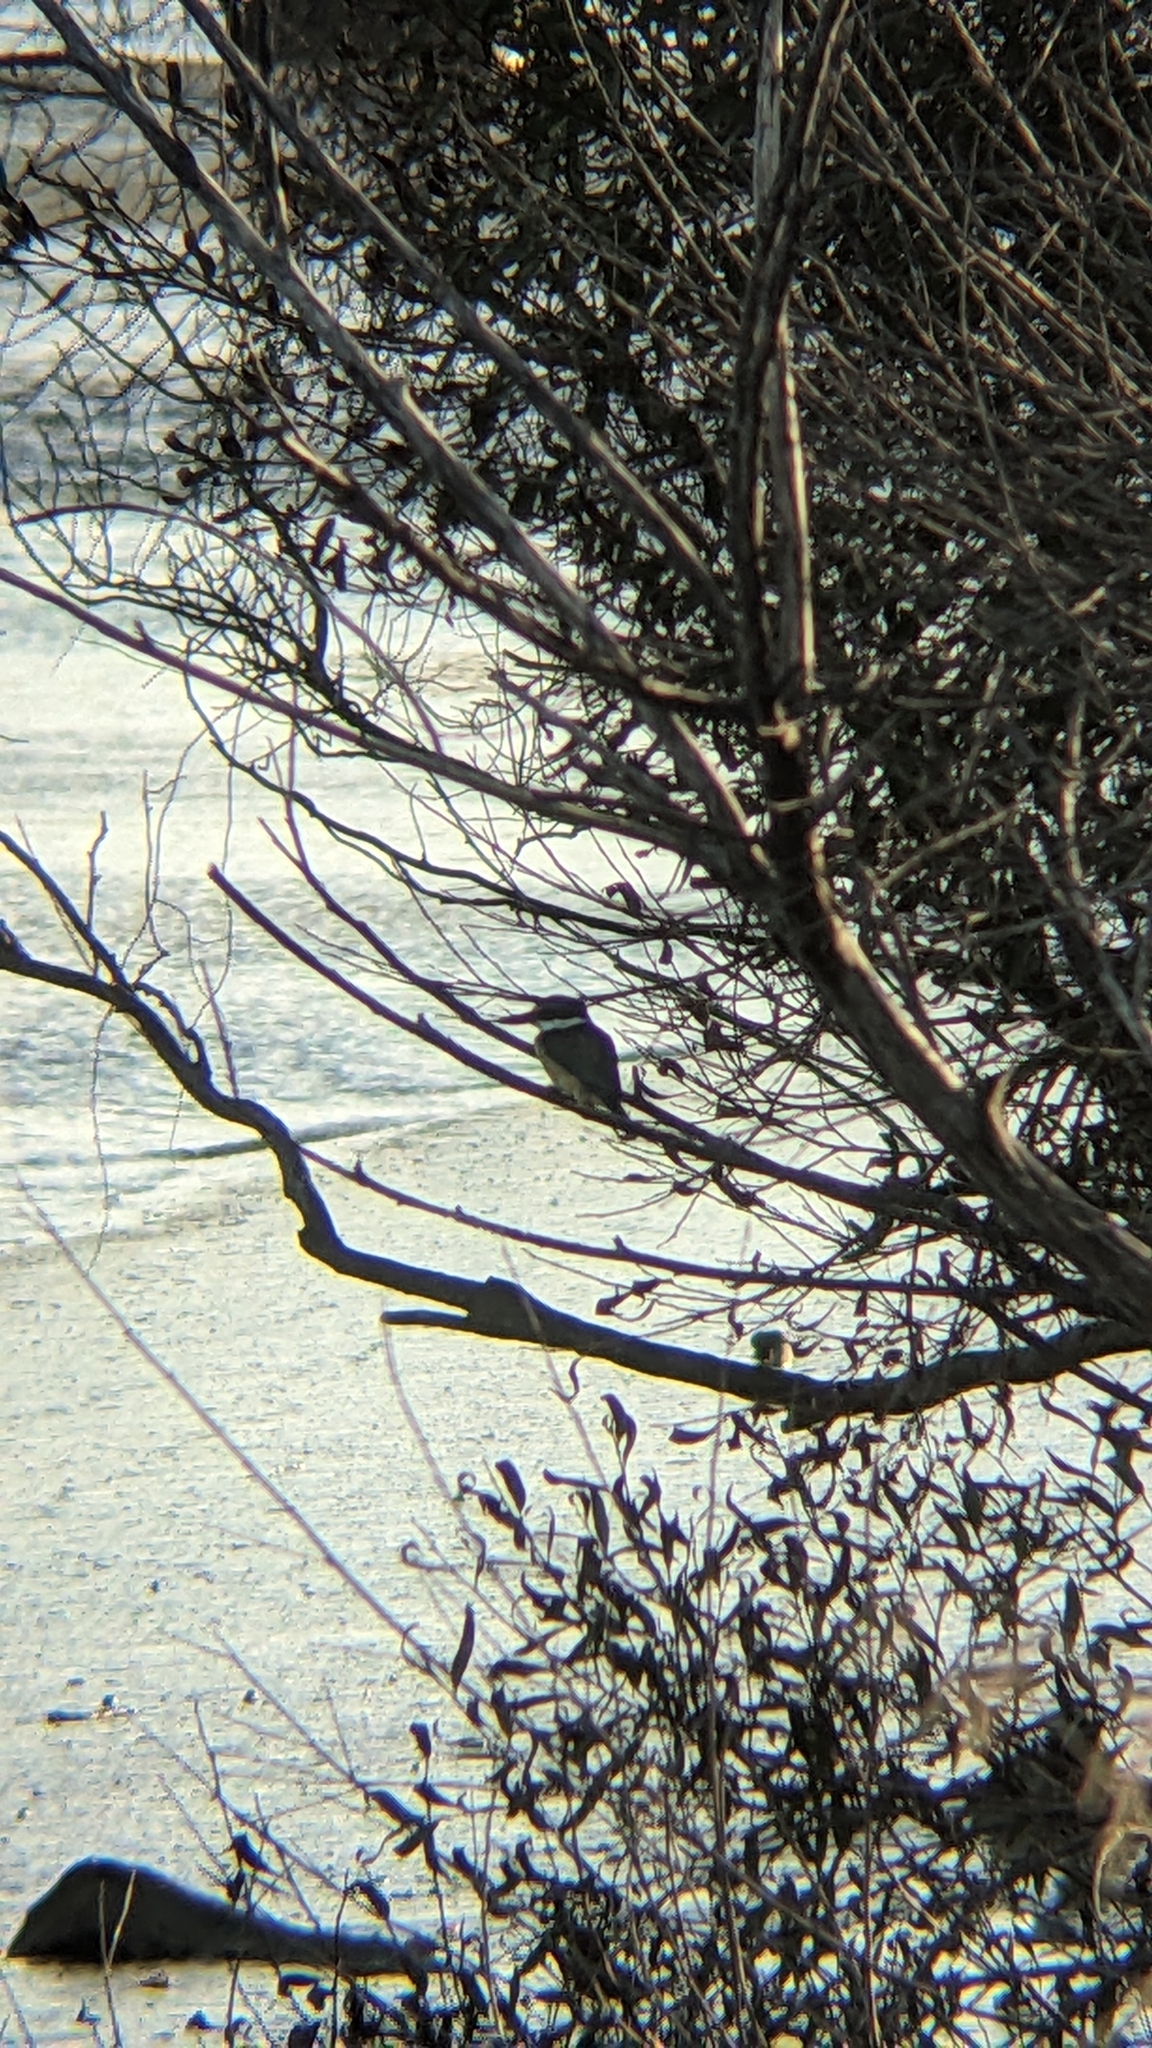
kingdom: Animalia
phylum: Chordata
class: Aves
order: Coraciiformes
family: Alcedinidae
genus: Todiramphus
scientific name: Todiramphus sanctus
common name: Sacred kingfisher
